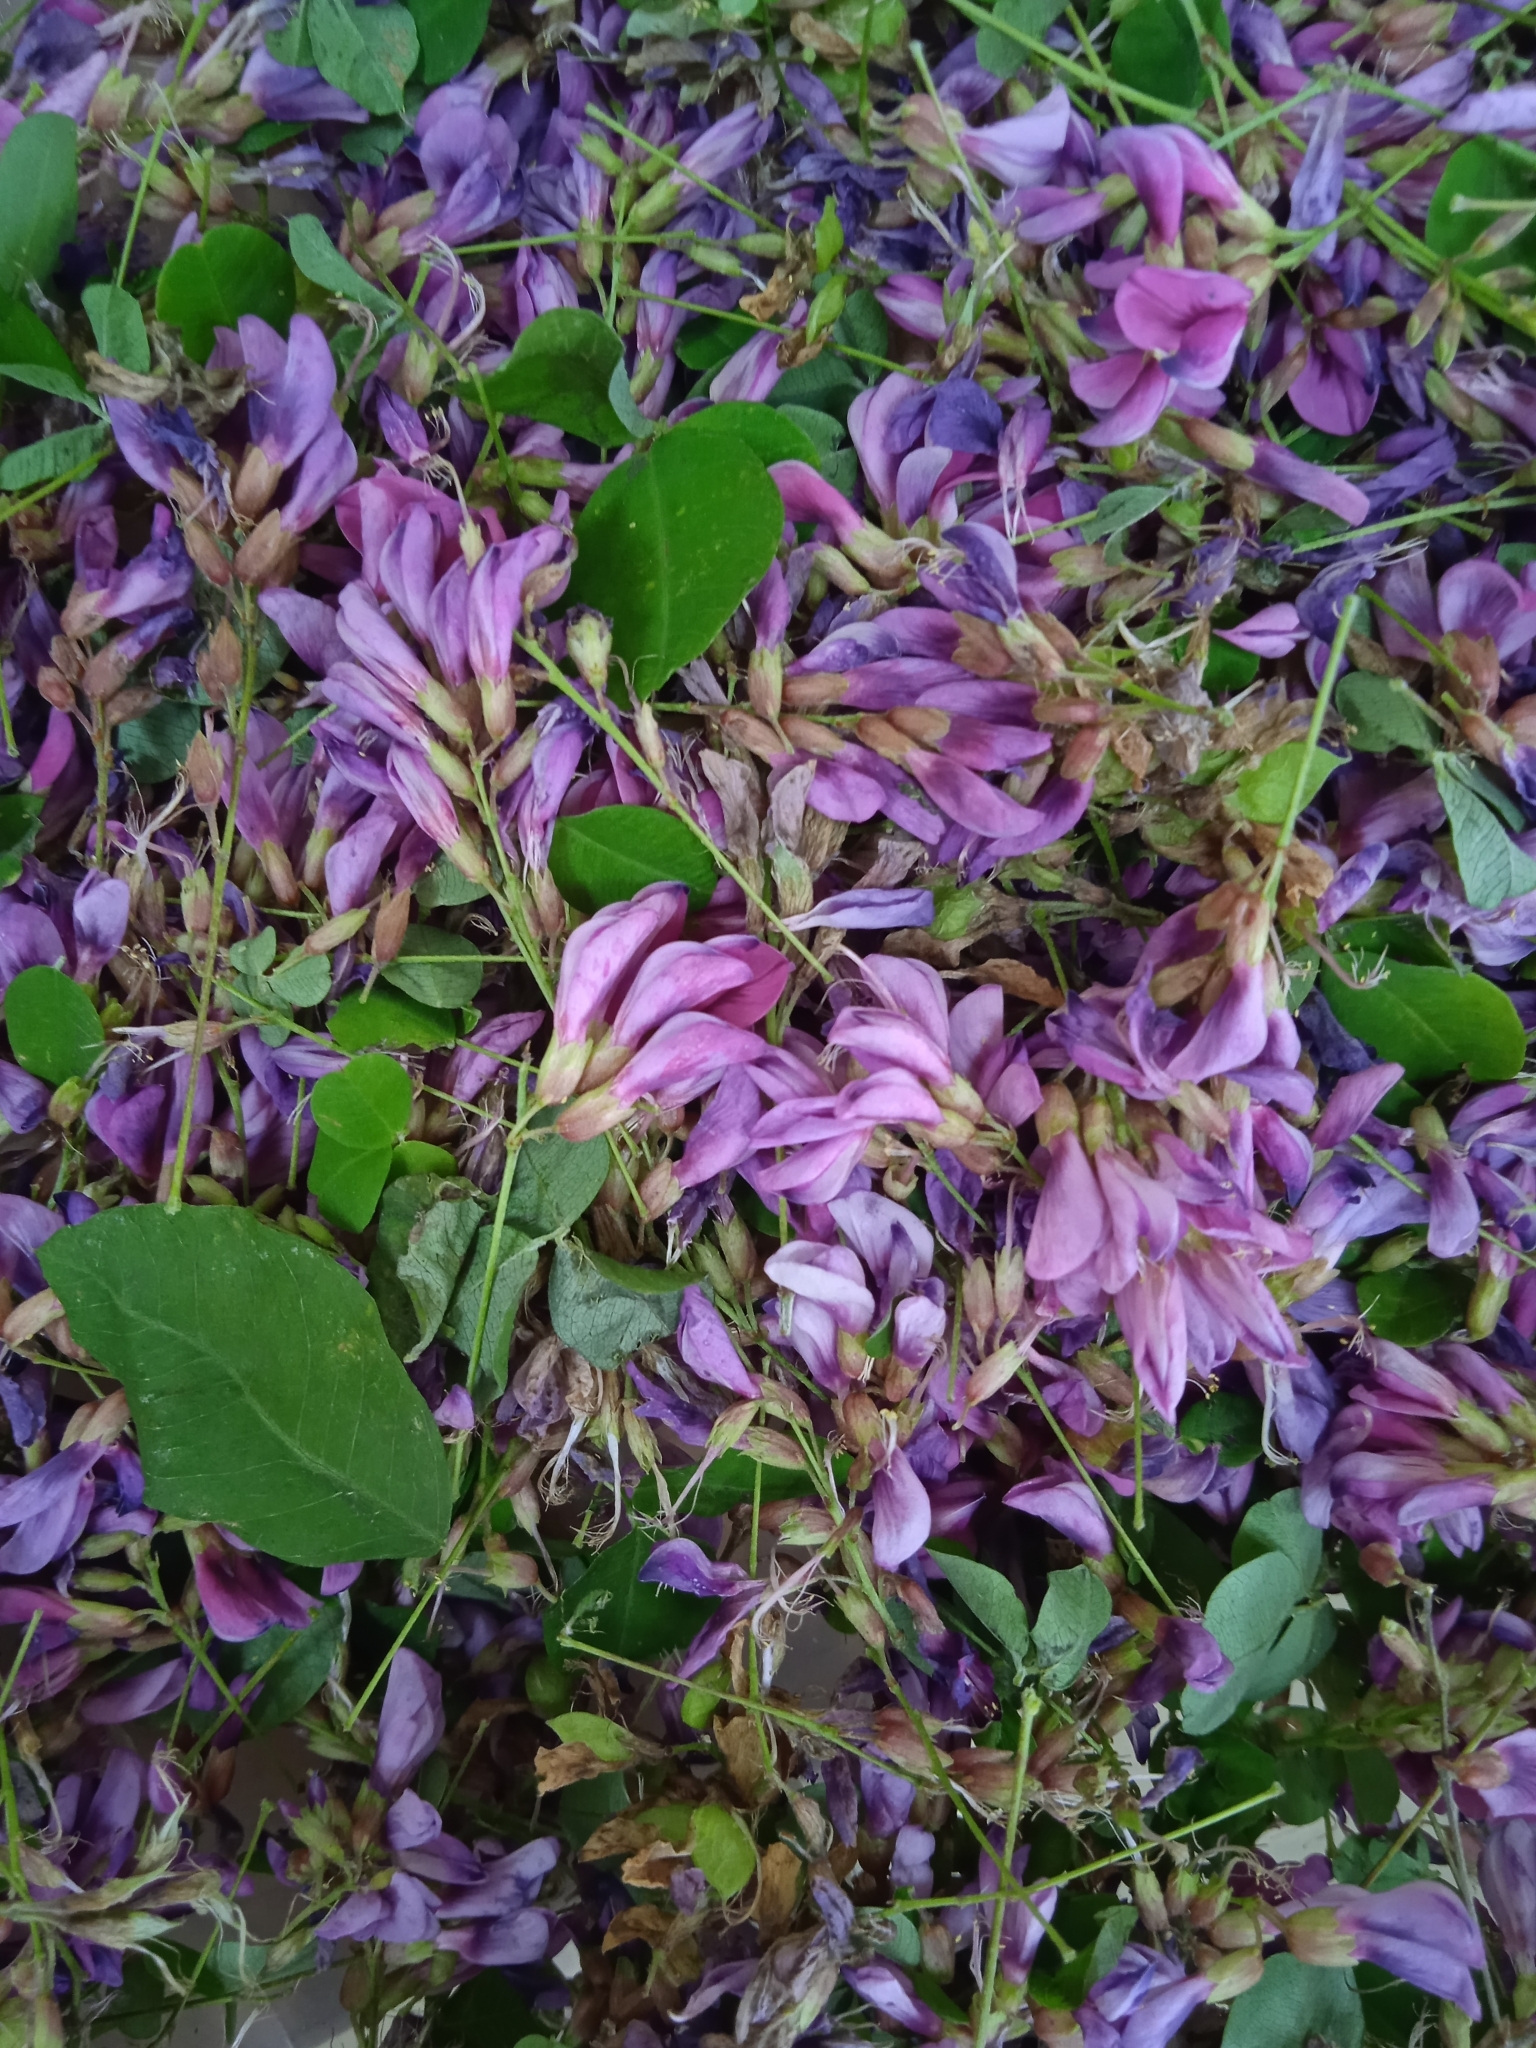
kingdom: Plantae
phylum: Tracheophyta
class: Magnoliopsida
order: Fabales
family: Fabaceae
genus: Lespedeza
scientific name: Lespedeza bicolor
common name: Shrub lespedeza
